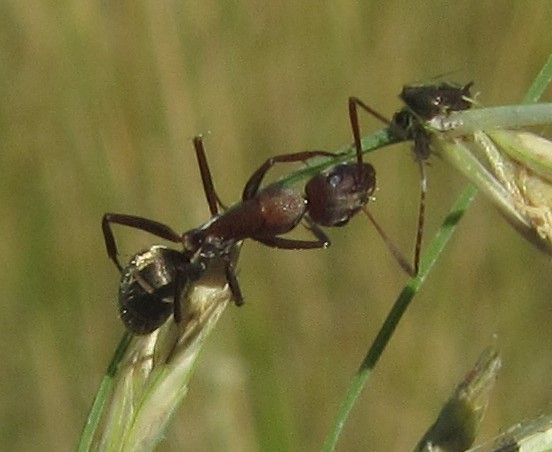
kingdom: Animalia
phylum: Arthropoda
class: Insecta
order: Hymenoptera
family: Formicidae
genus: Camponotus
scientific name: Camponotus vestitus
